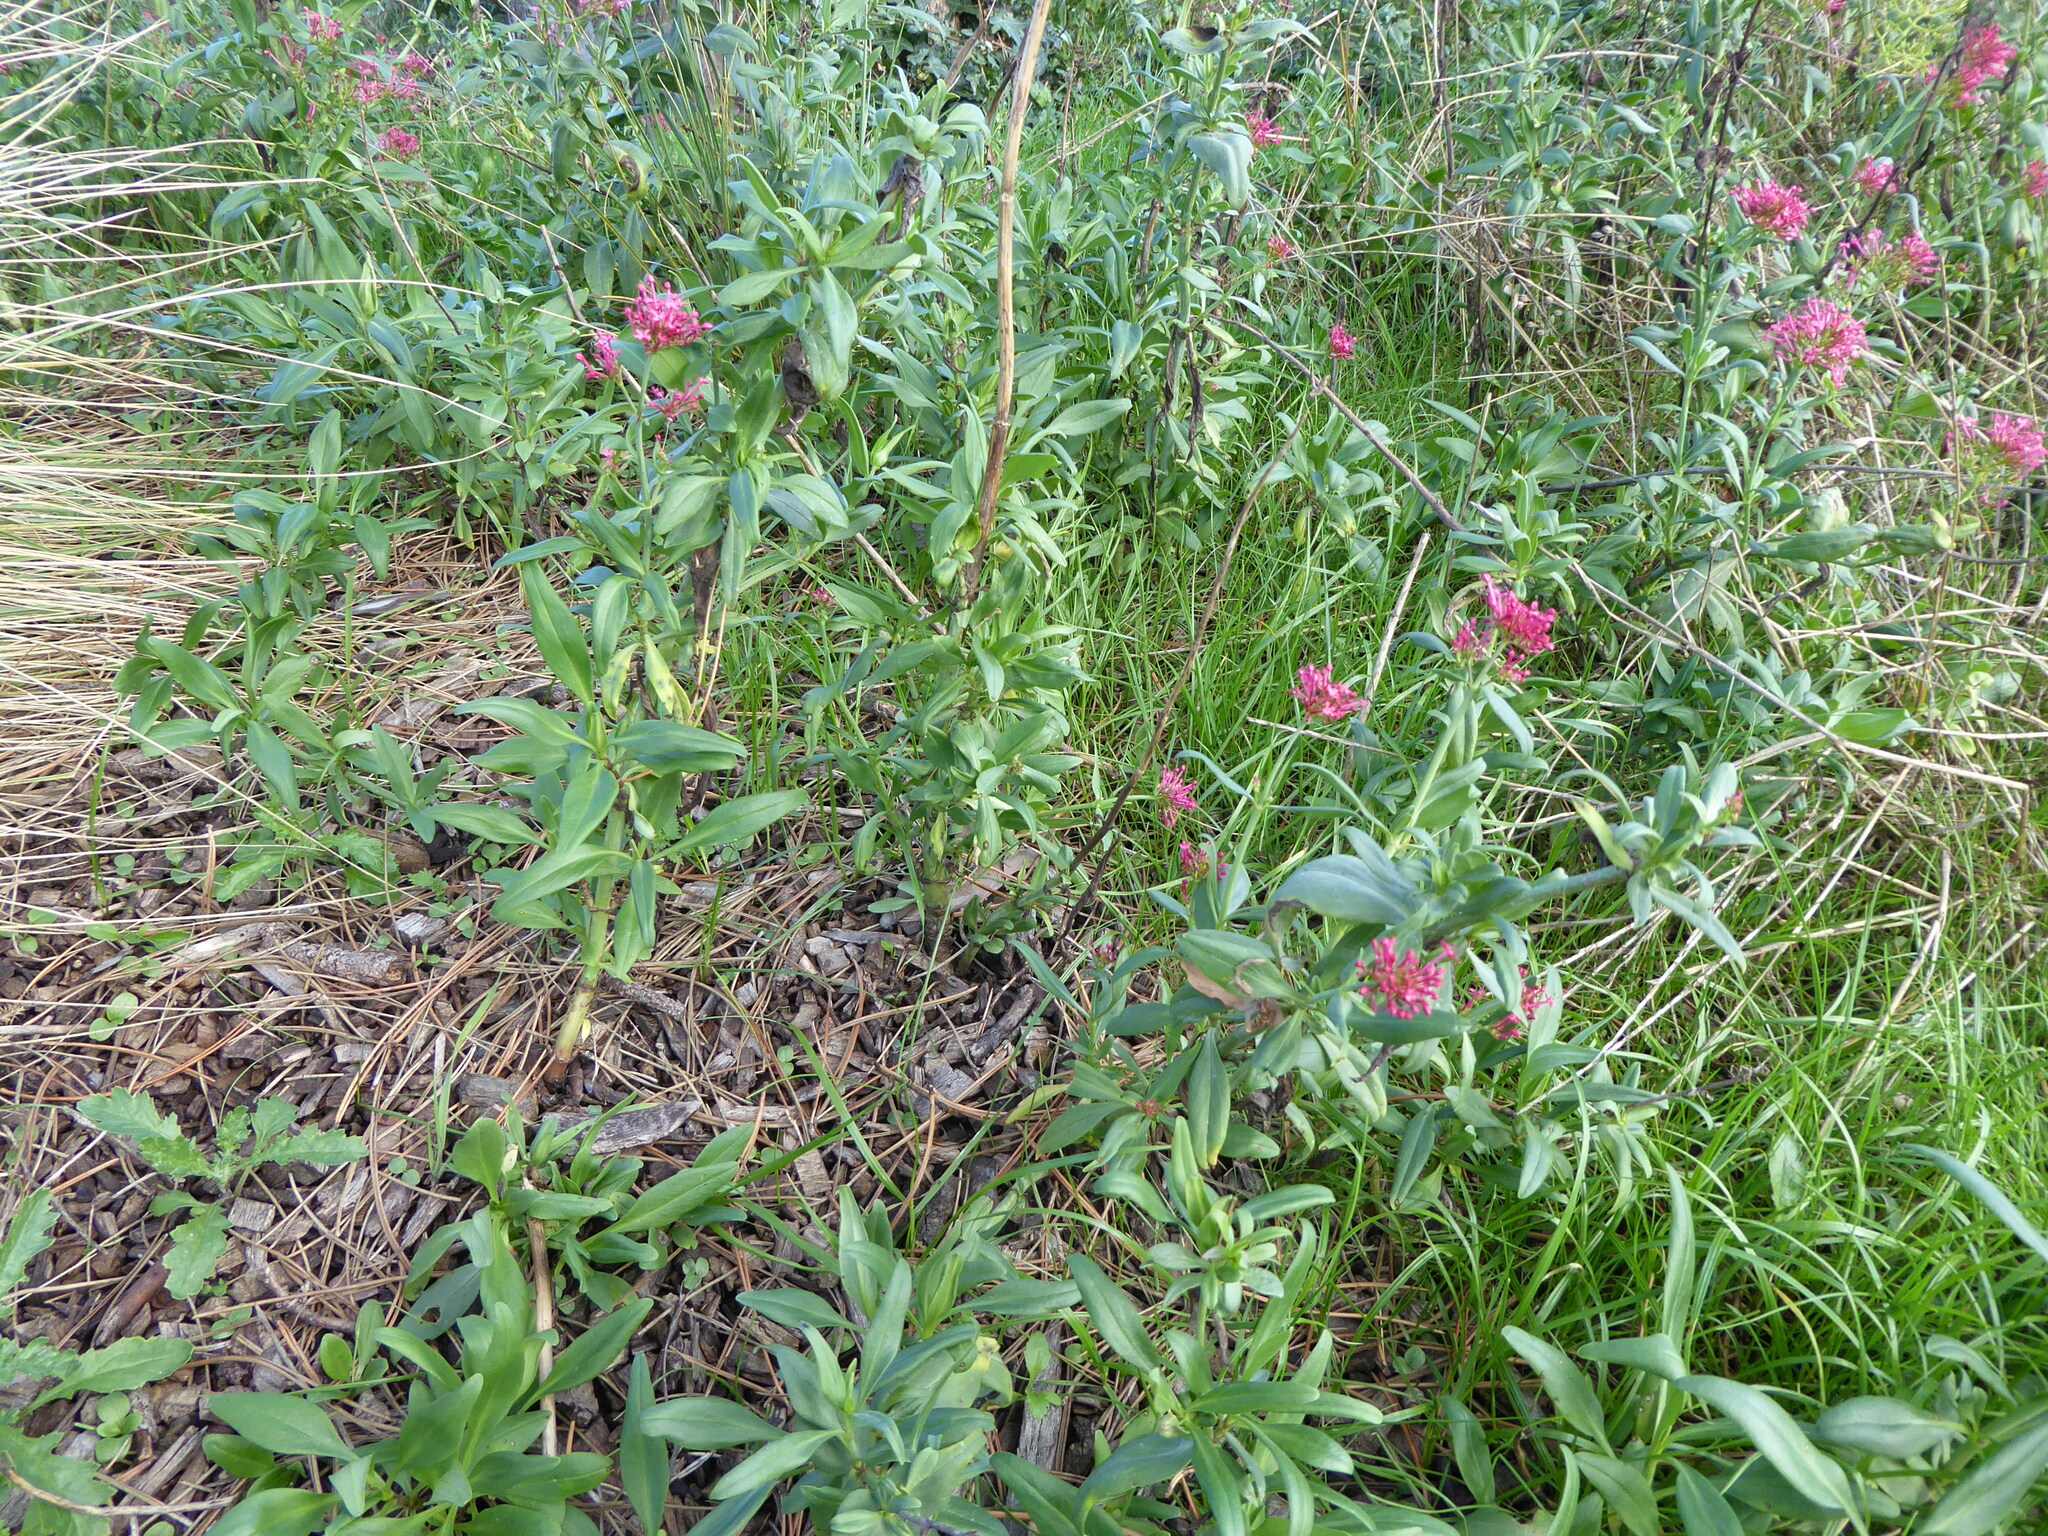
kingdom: Plantae
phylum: Tracheophyta
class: Magnoliopsida
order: Dipsacales
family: Caprifoliaceae
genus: Centranthus
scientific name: Centranthus ruber
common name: Red valerian
